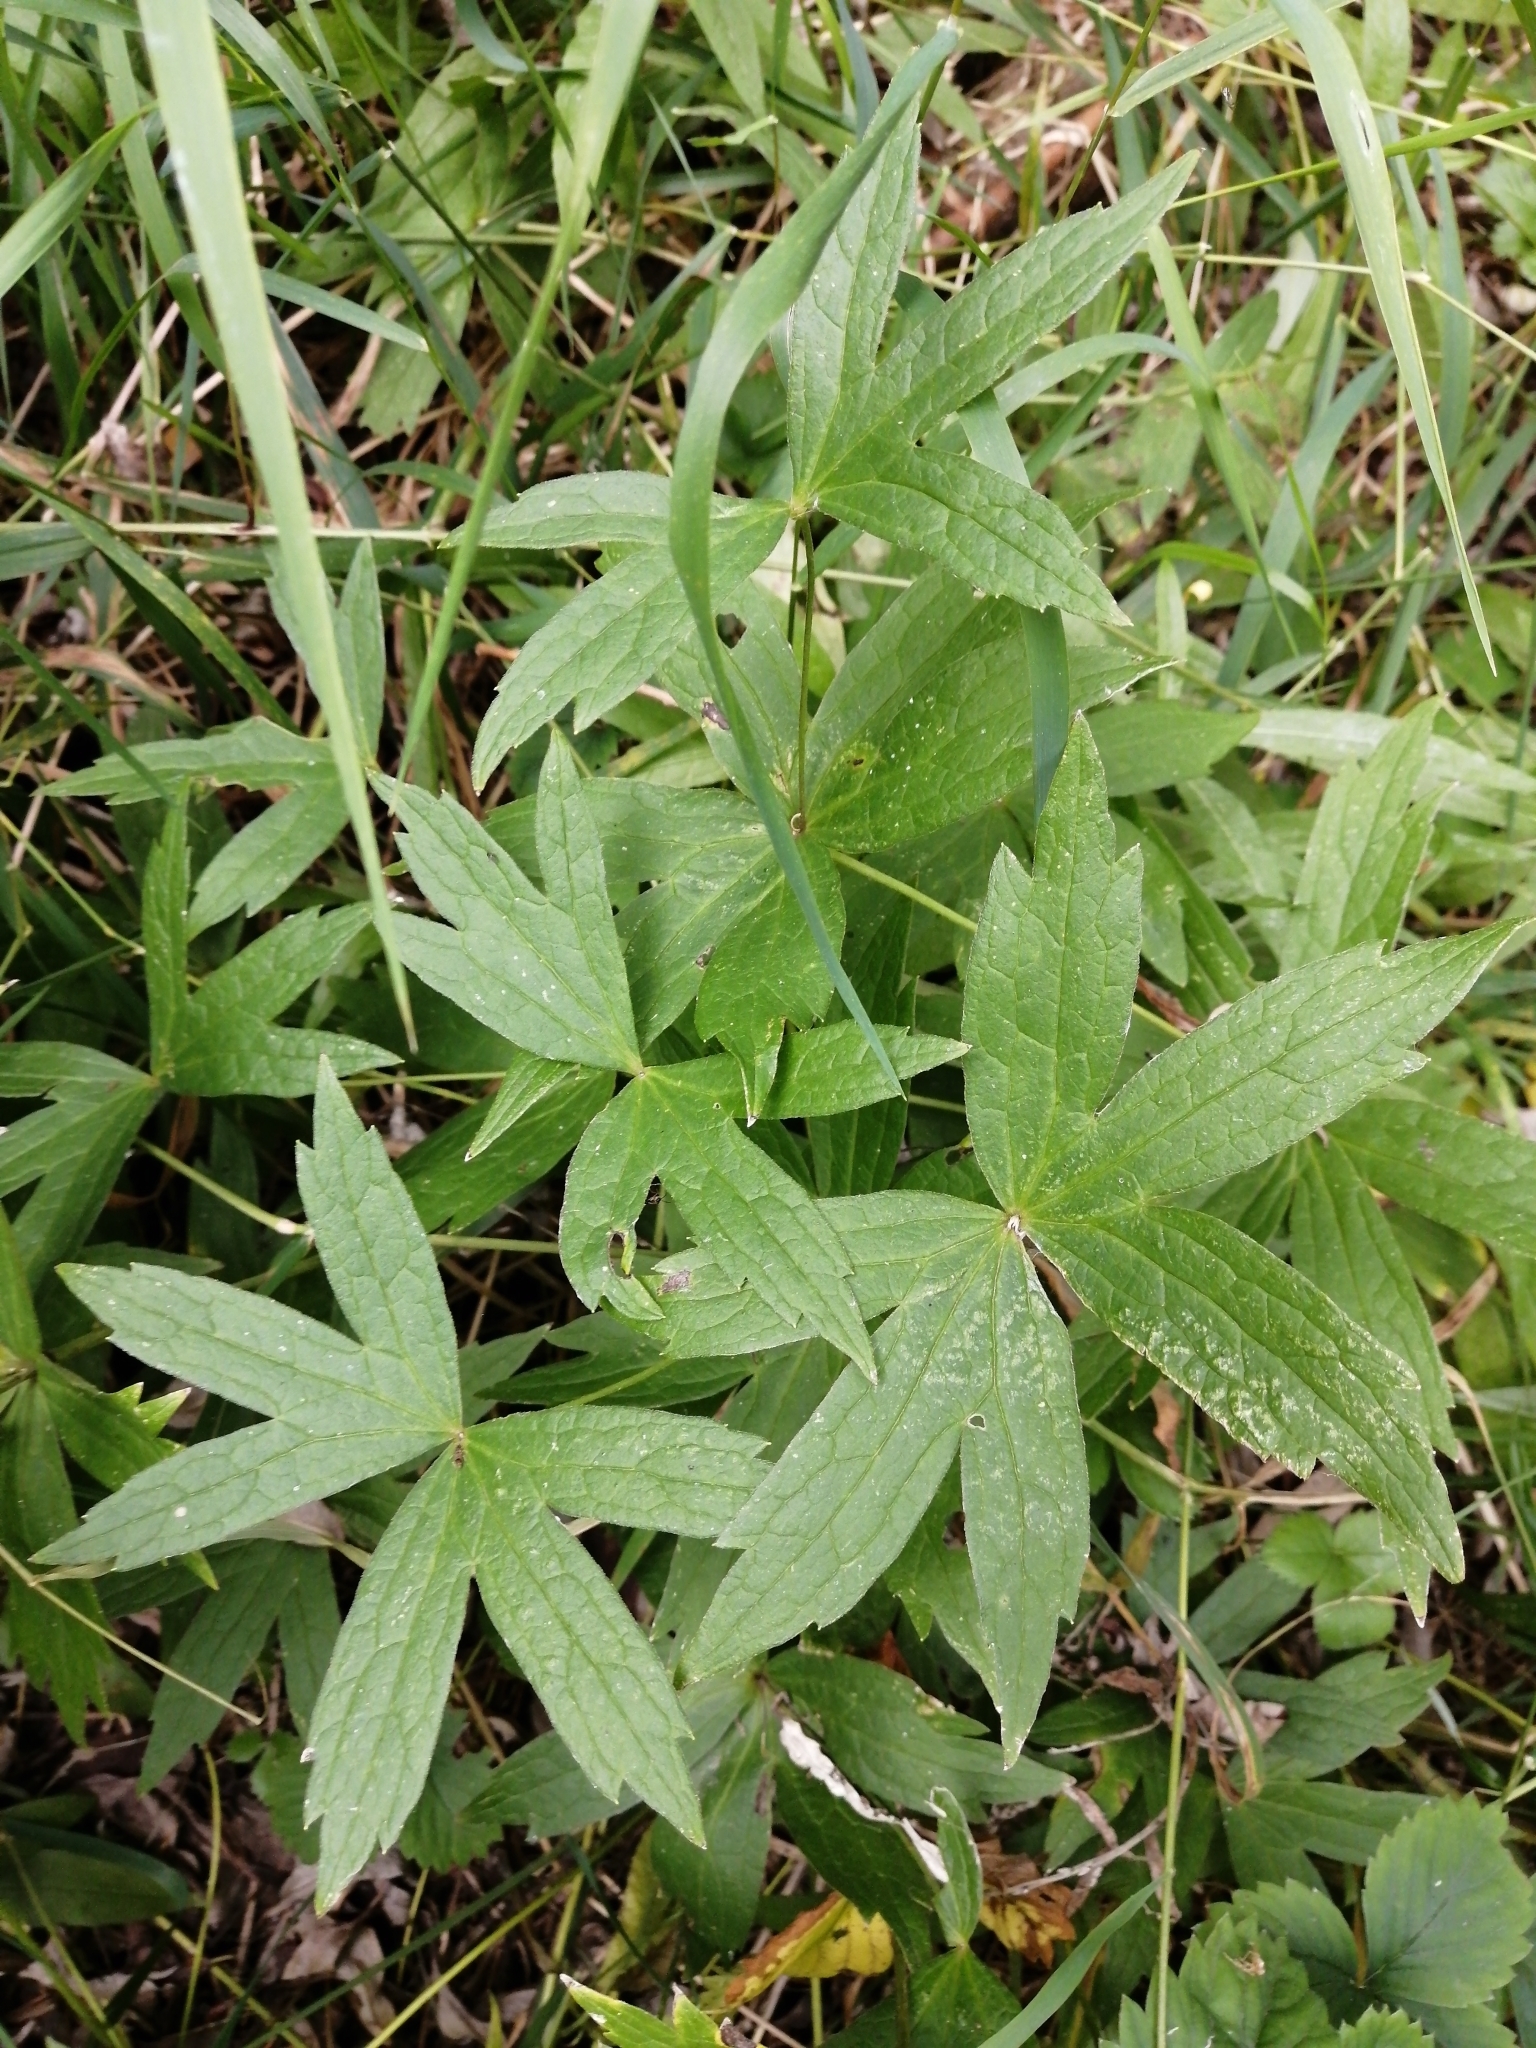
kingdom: Plantae
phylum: Tracheophyta
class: Magnoliopsida
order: Ranunculales
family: Ranunculaceae
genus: Anemonastrum
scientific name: Anemonastrum dichotomum
